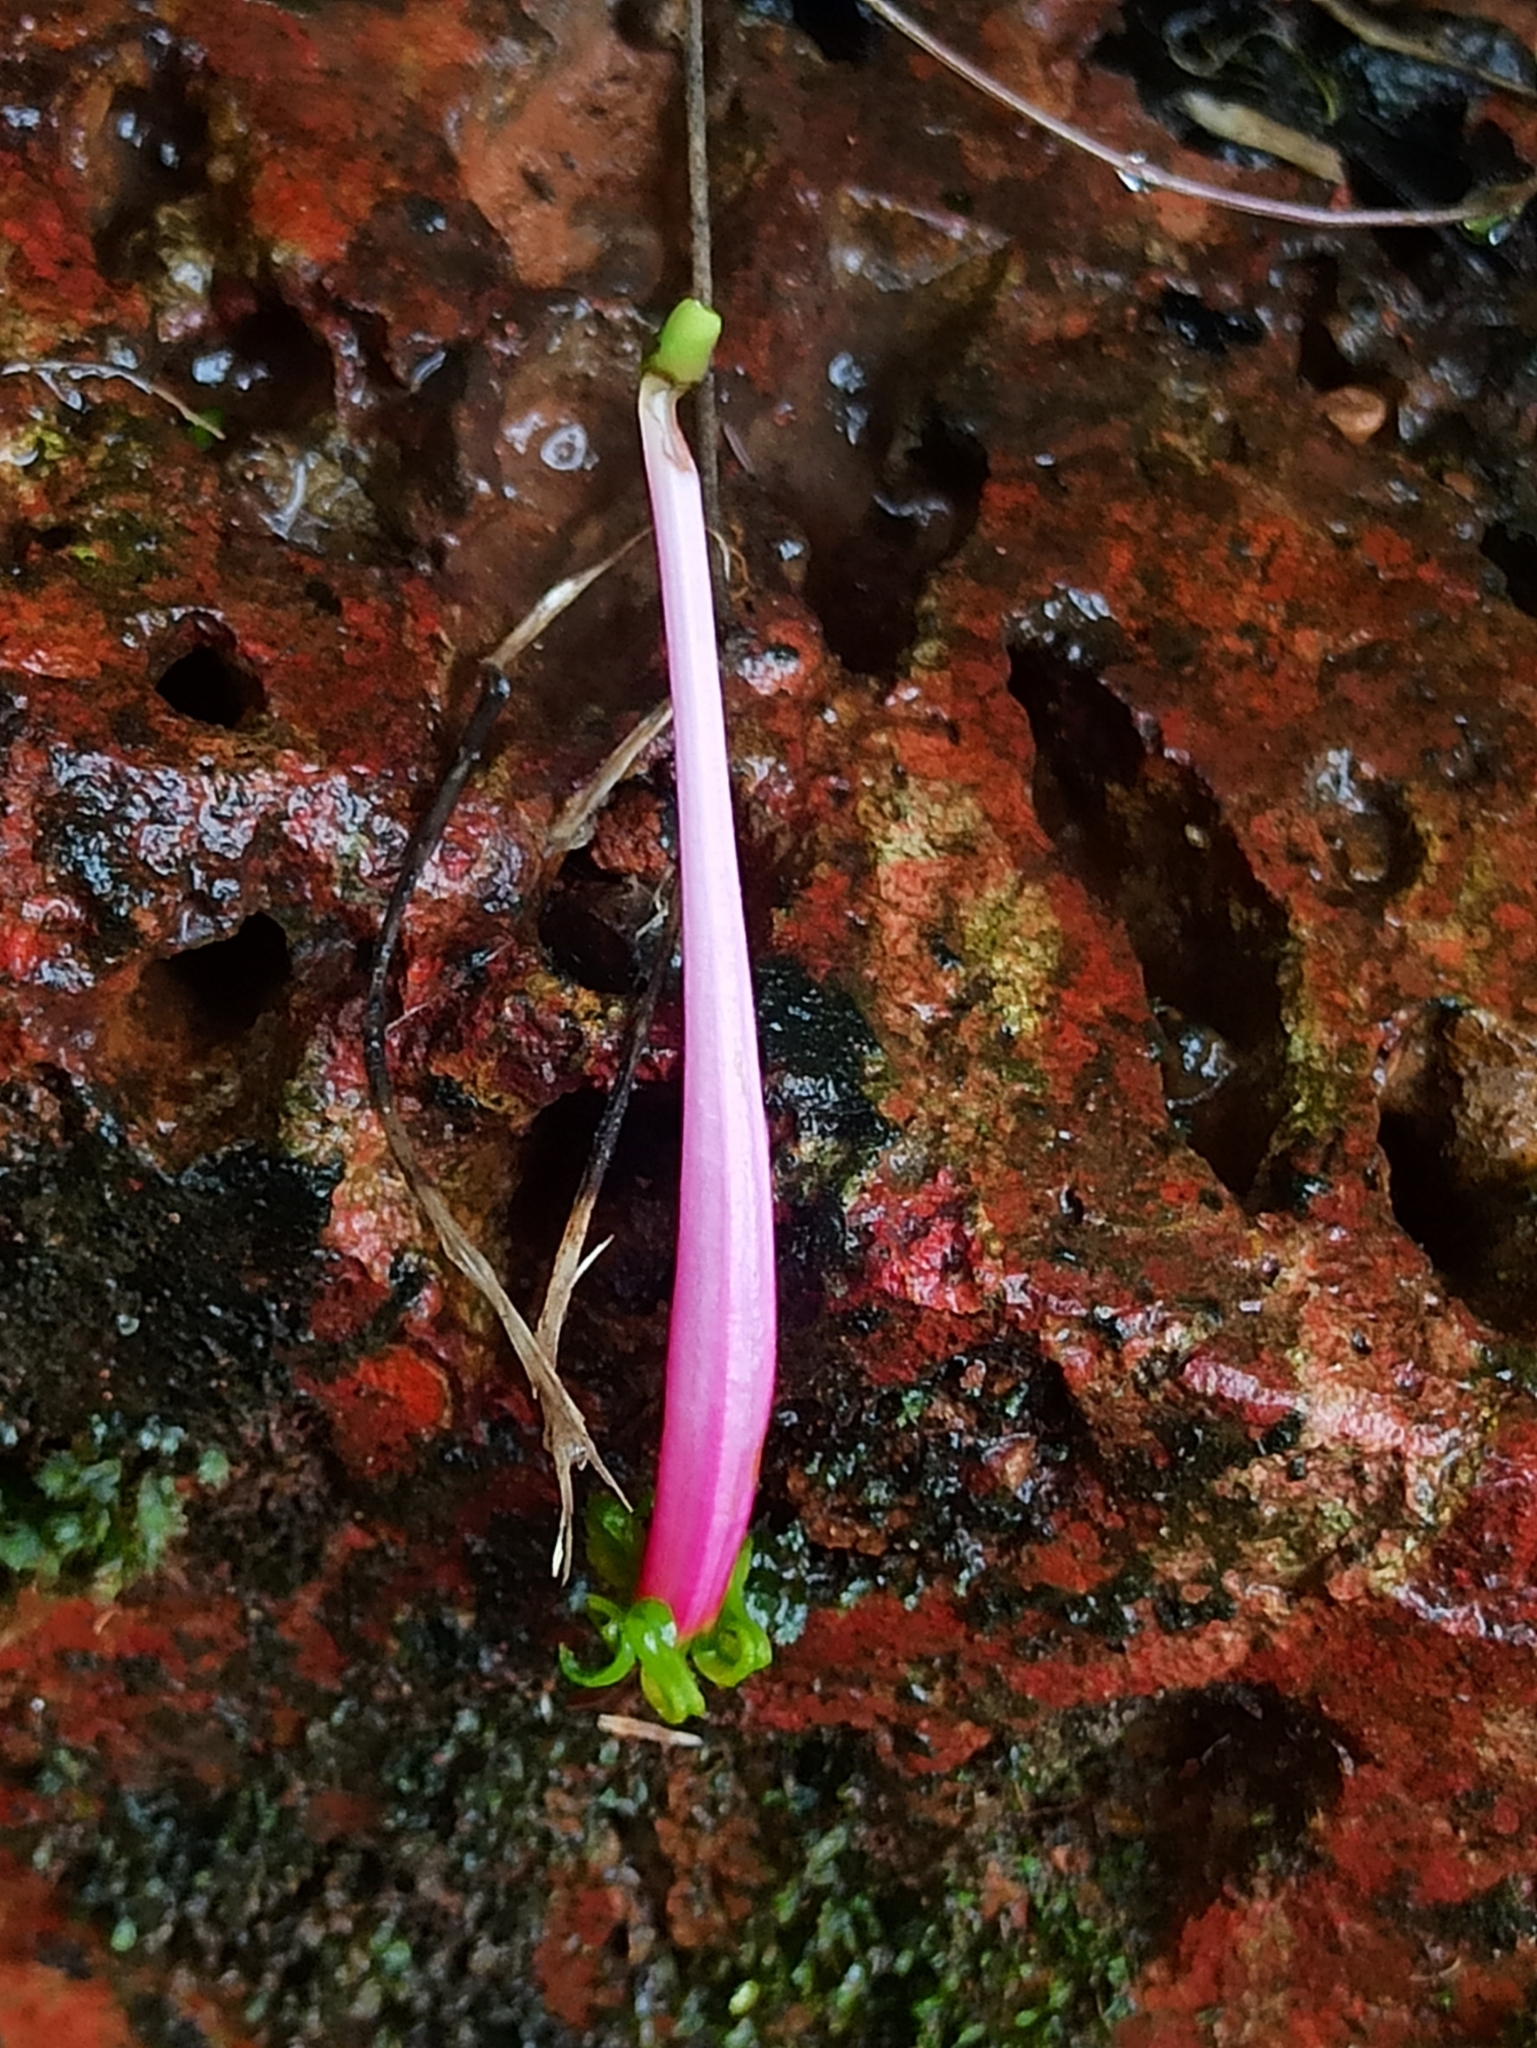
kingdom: Plantae
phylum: Tracheophyta
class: Magnoliopsida
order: Santalales
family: Loranthaceae
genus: Dendrophthoe
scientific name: Dendrophthoe falcata
